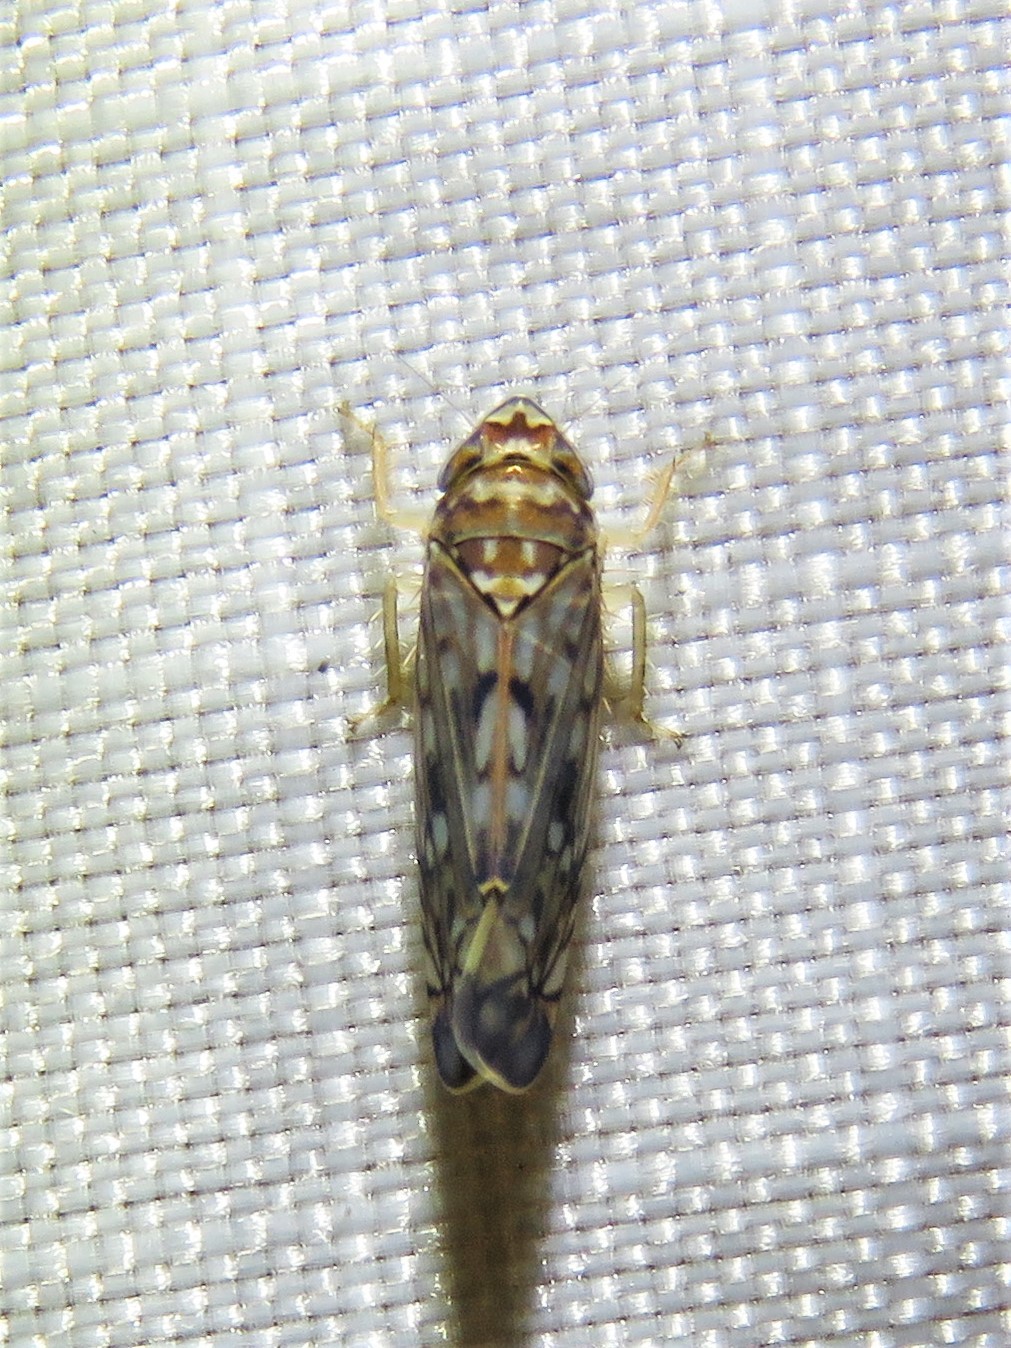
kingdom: Animalia
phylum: Arthropoda
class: Insecta
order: Hemiptera
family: Cicadellidae
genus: Scaphoideus
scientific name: Scaphoideus productus
